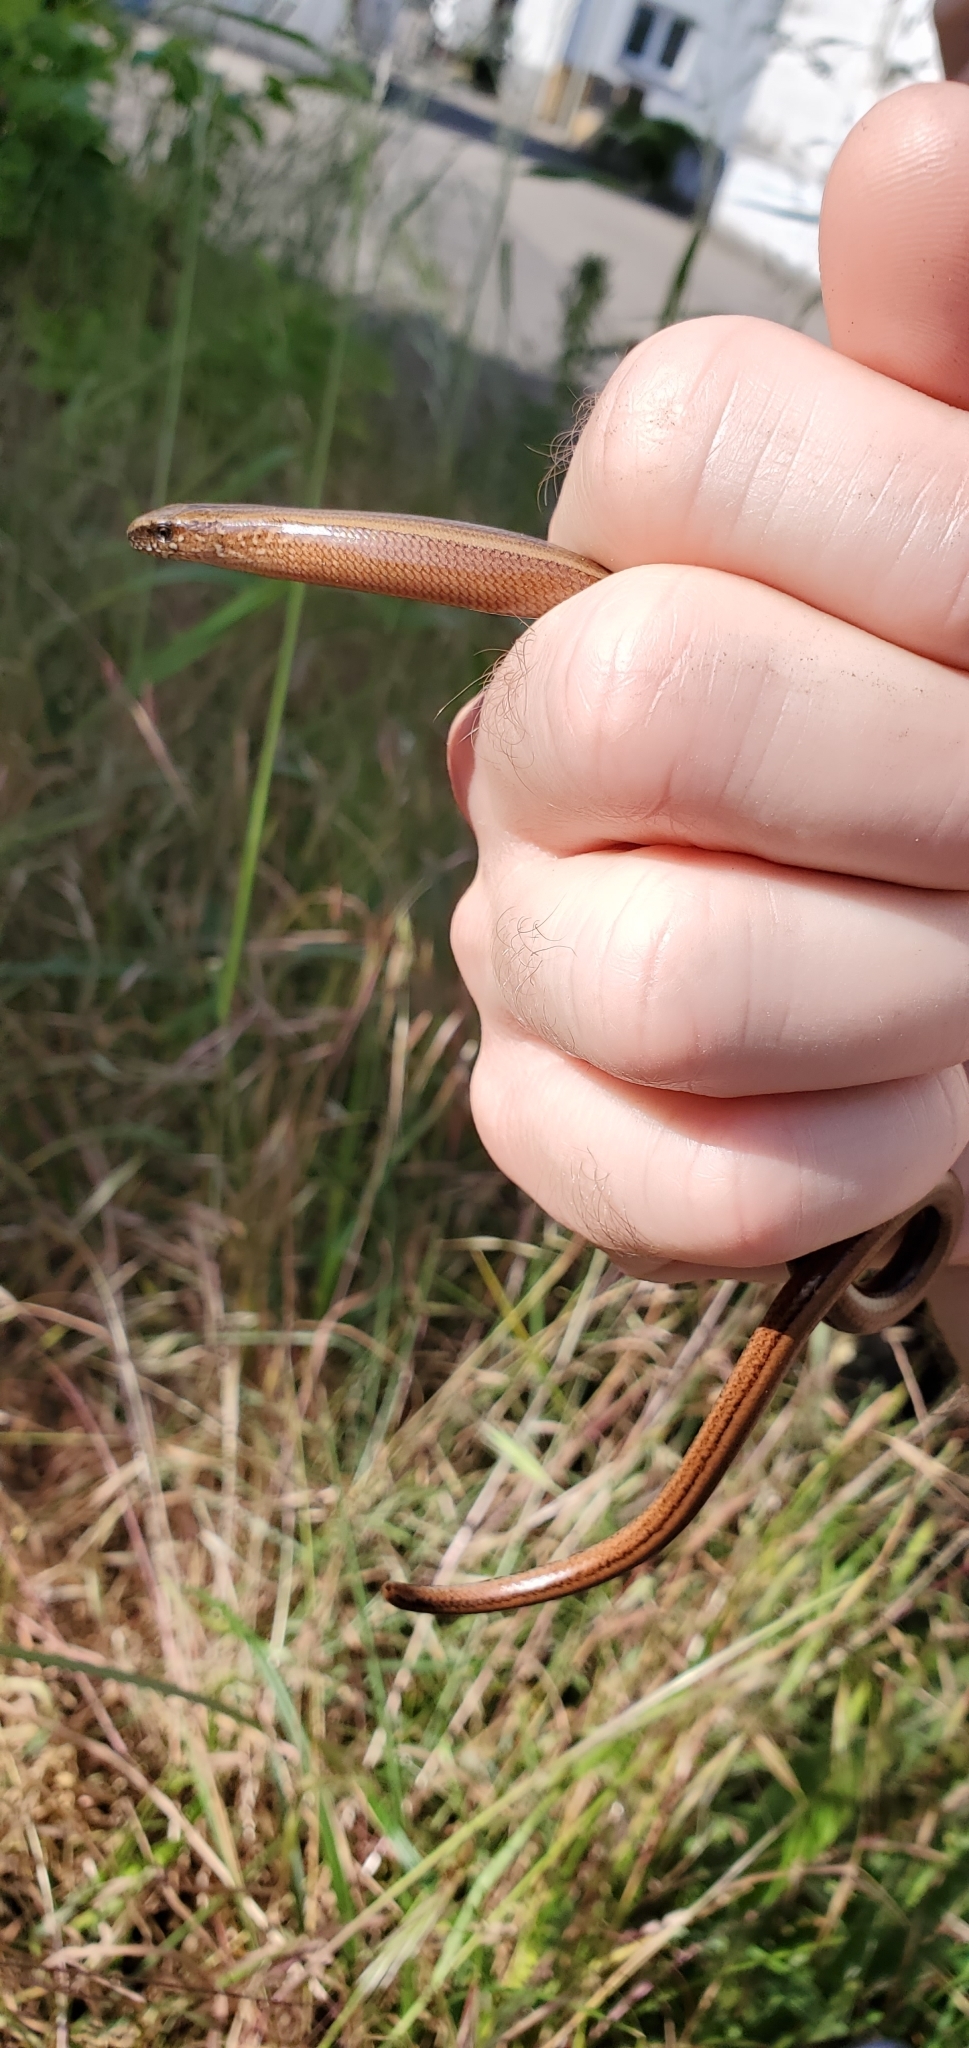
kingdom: Animalia
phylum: Chordata
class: Squamata
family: Anguidae
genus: Anguis
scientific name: Anguis fragilis
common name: Slow worm
